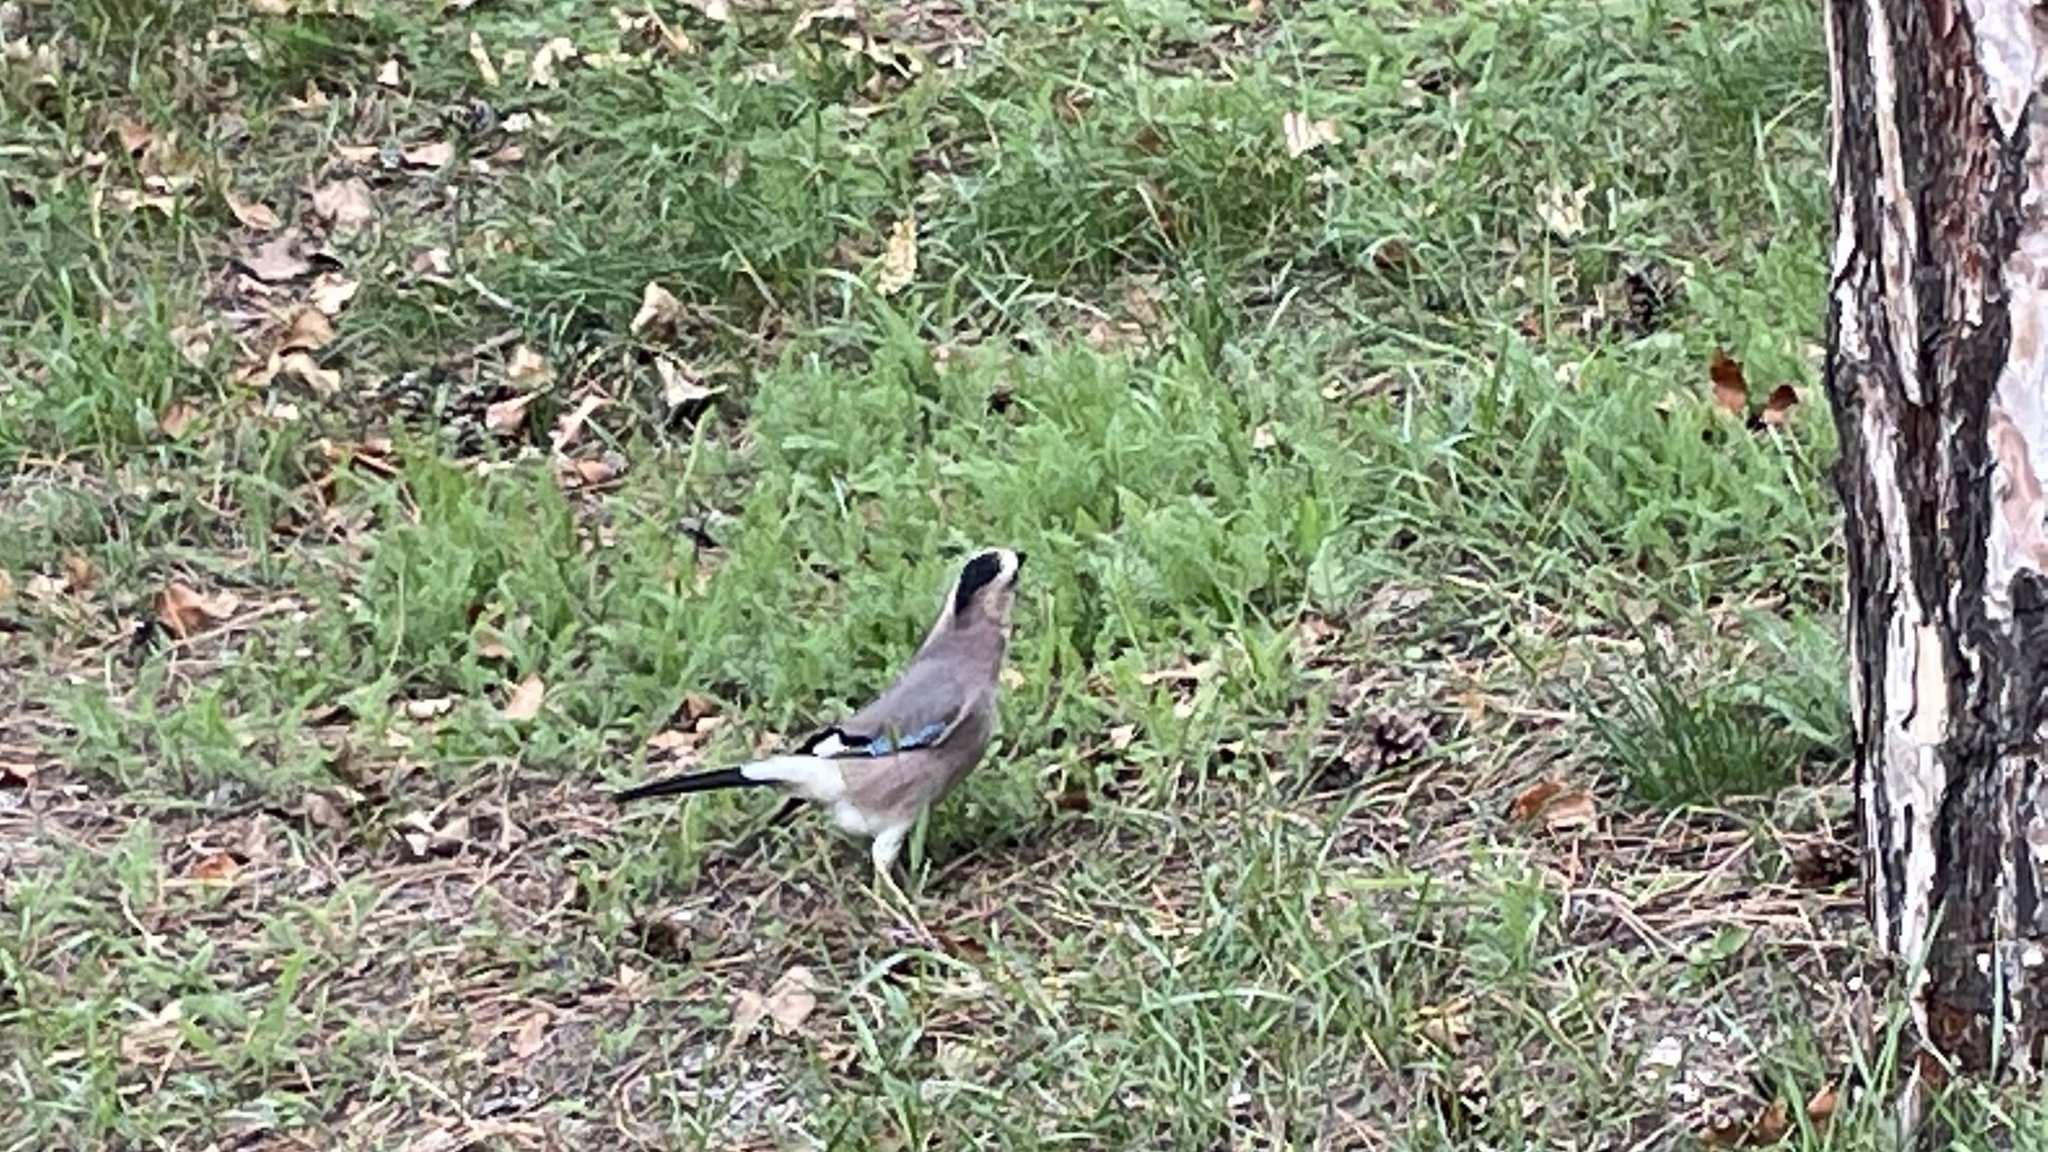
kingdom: Animalia
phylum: Chordata
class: Aves
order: Passeriformes
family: Corvidae
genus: Garrulus
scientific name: Garrulus glandarius
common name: Eurasian jay
